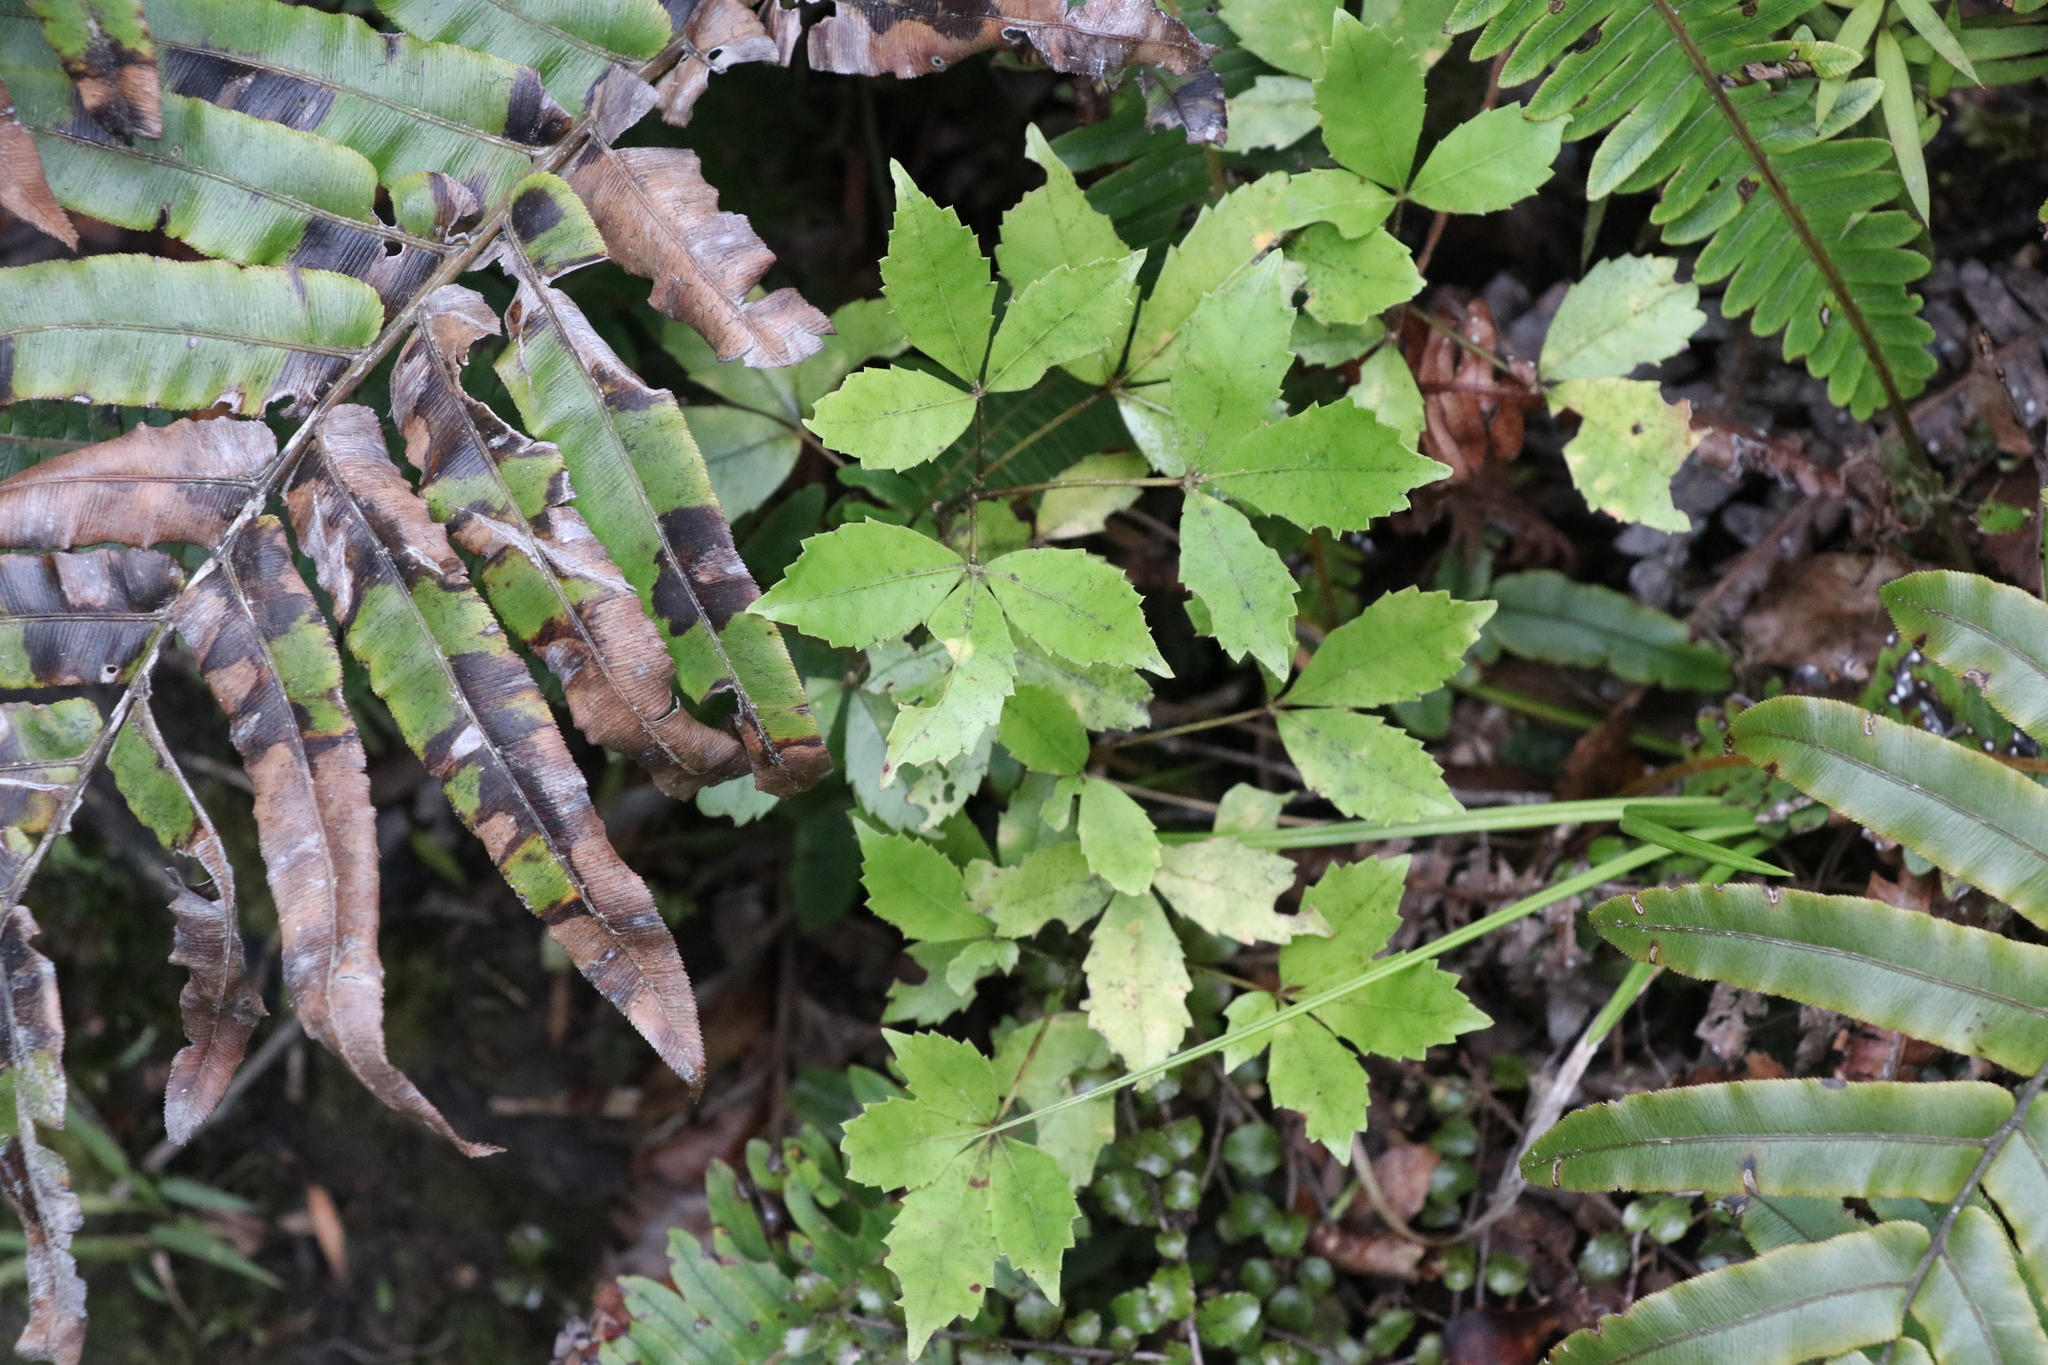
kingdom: Plantae
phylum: Tracheophyta
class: Magnoliopsida
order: Apiales
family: Araliaceae
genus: Raukaua
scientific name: Raukaua simplex
